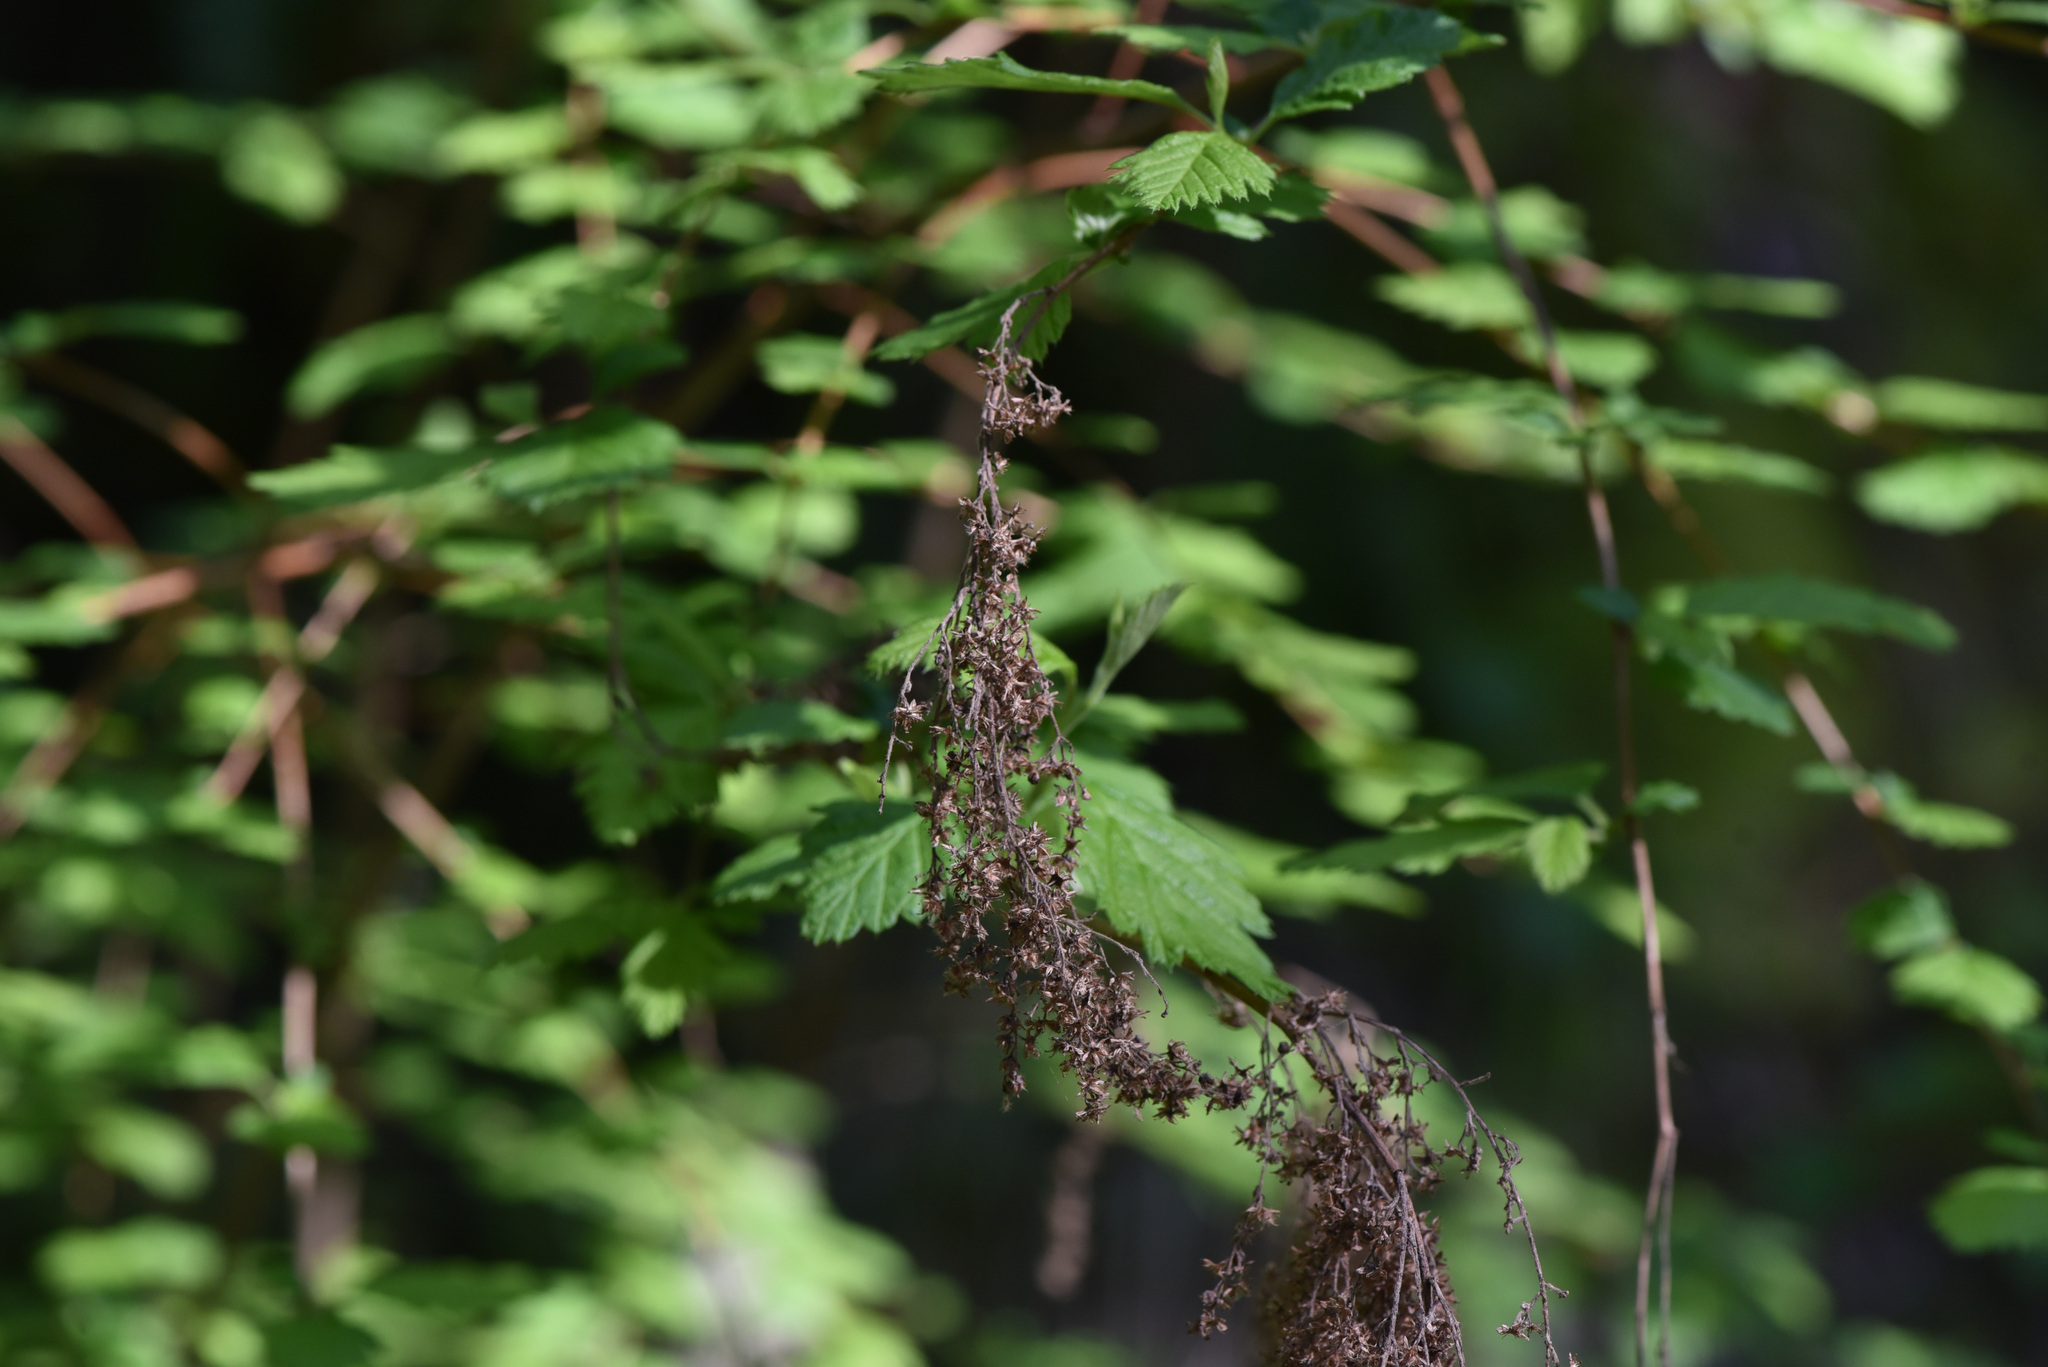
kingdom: Plantae
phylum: Tracheophyta
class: Magnoliopsida
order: Rosales
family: Rosaceae
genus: Holodiscus
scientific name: Holodiscus discolor
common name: Oceanspray
